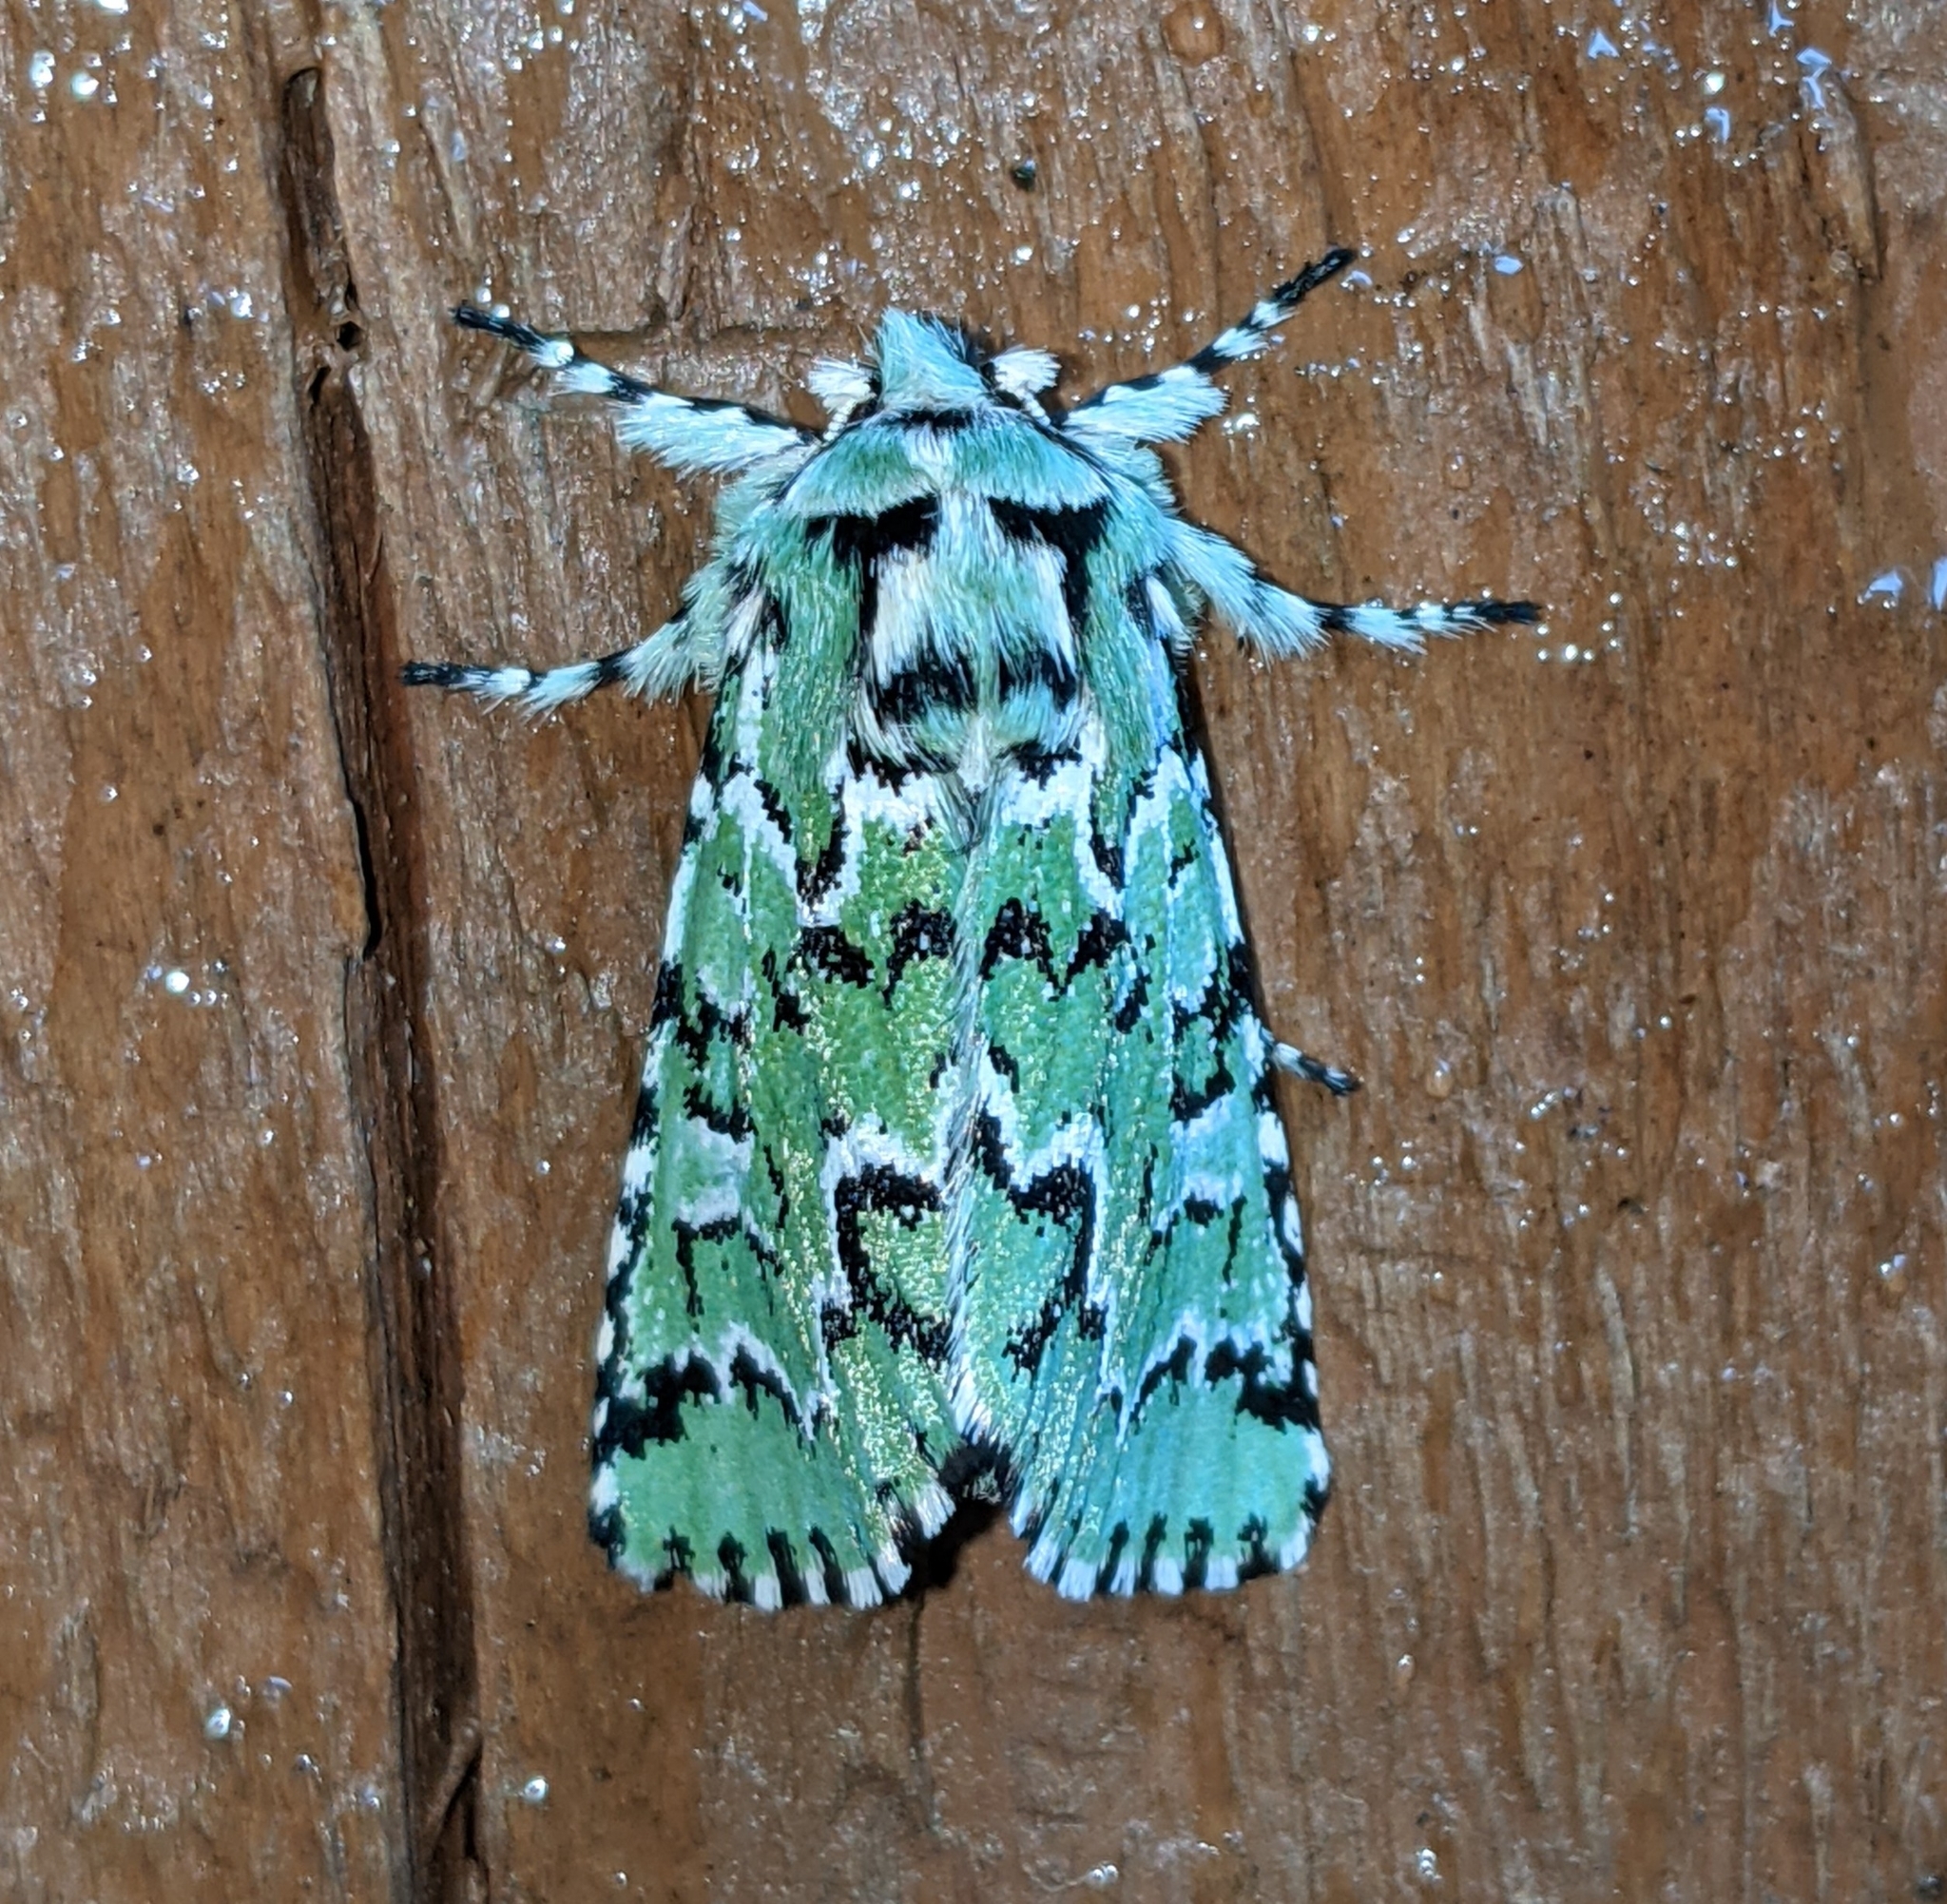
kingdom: Animalia
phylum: Arthropoda
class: Insecta
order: Lepidoptera
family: Noctuidae
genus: Feralia
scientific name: Feralia deceptiva
